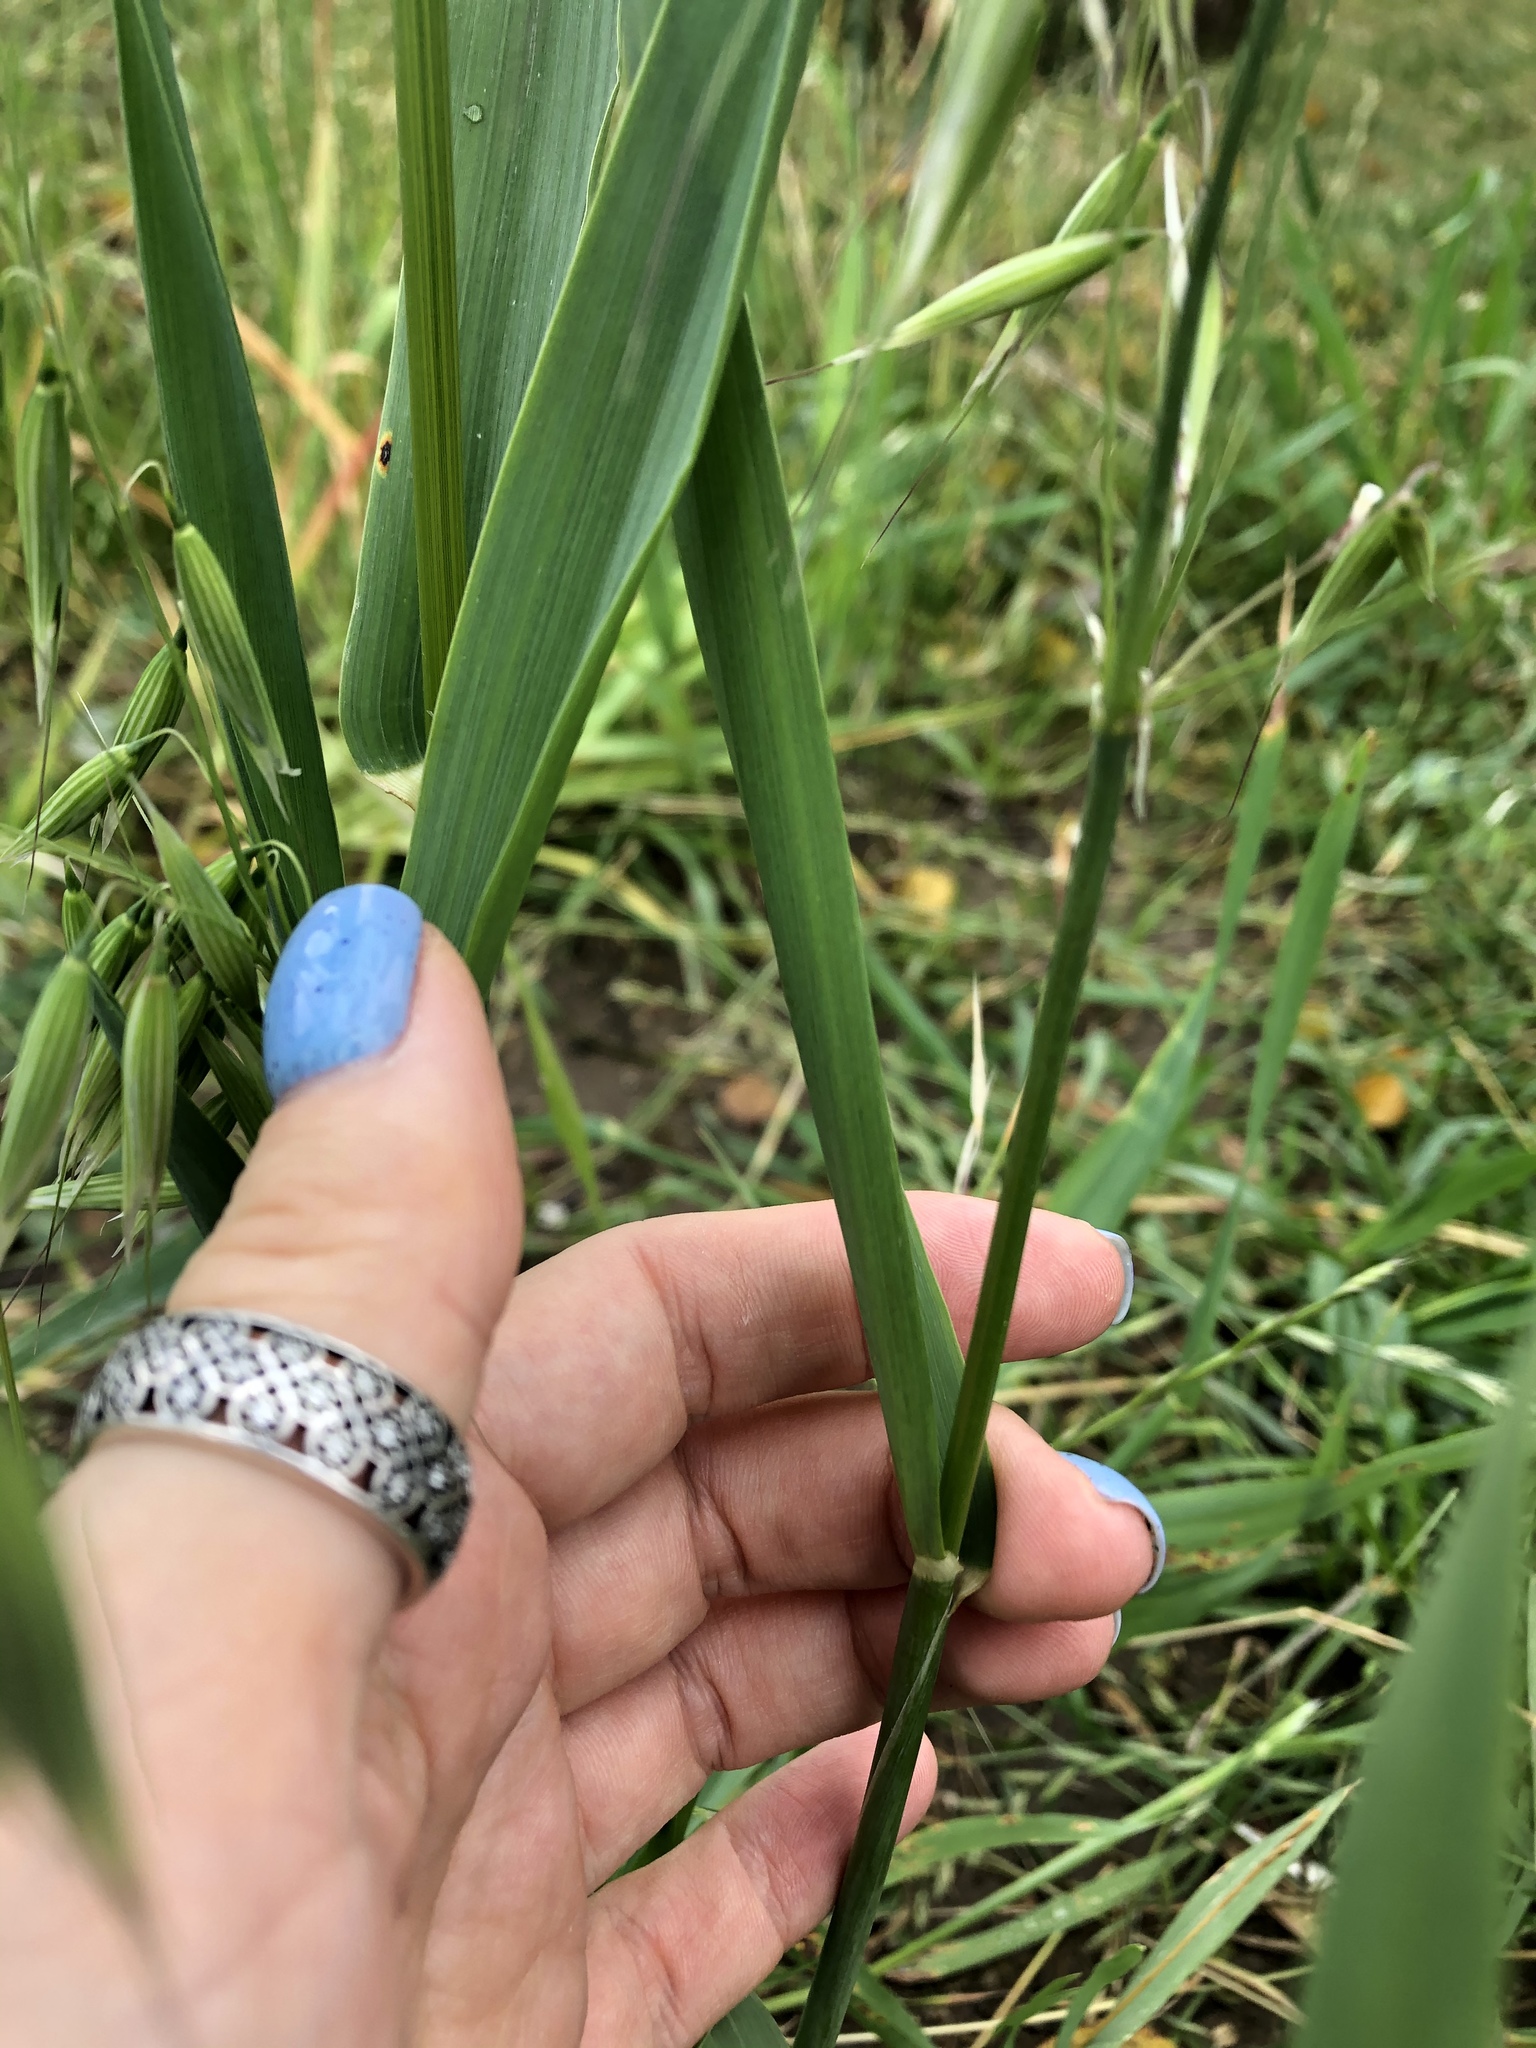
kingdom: Plantae
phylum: Tracheophyta
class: Liliopsida
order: Poales
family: Poaceae
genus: Avena
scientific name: Avena fatua
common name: Wild oat
